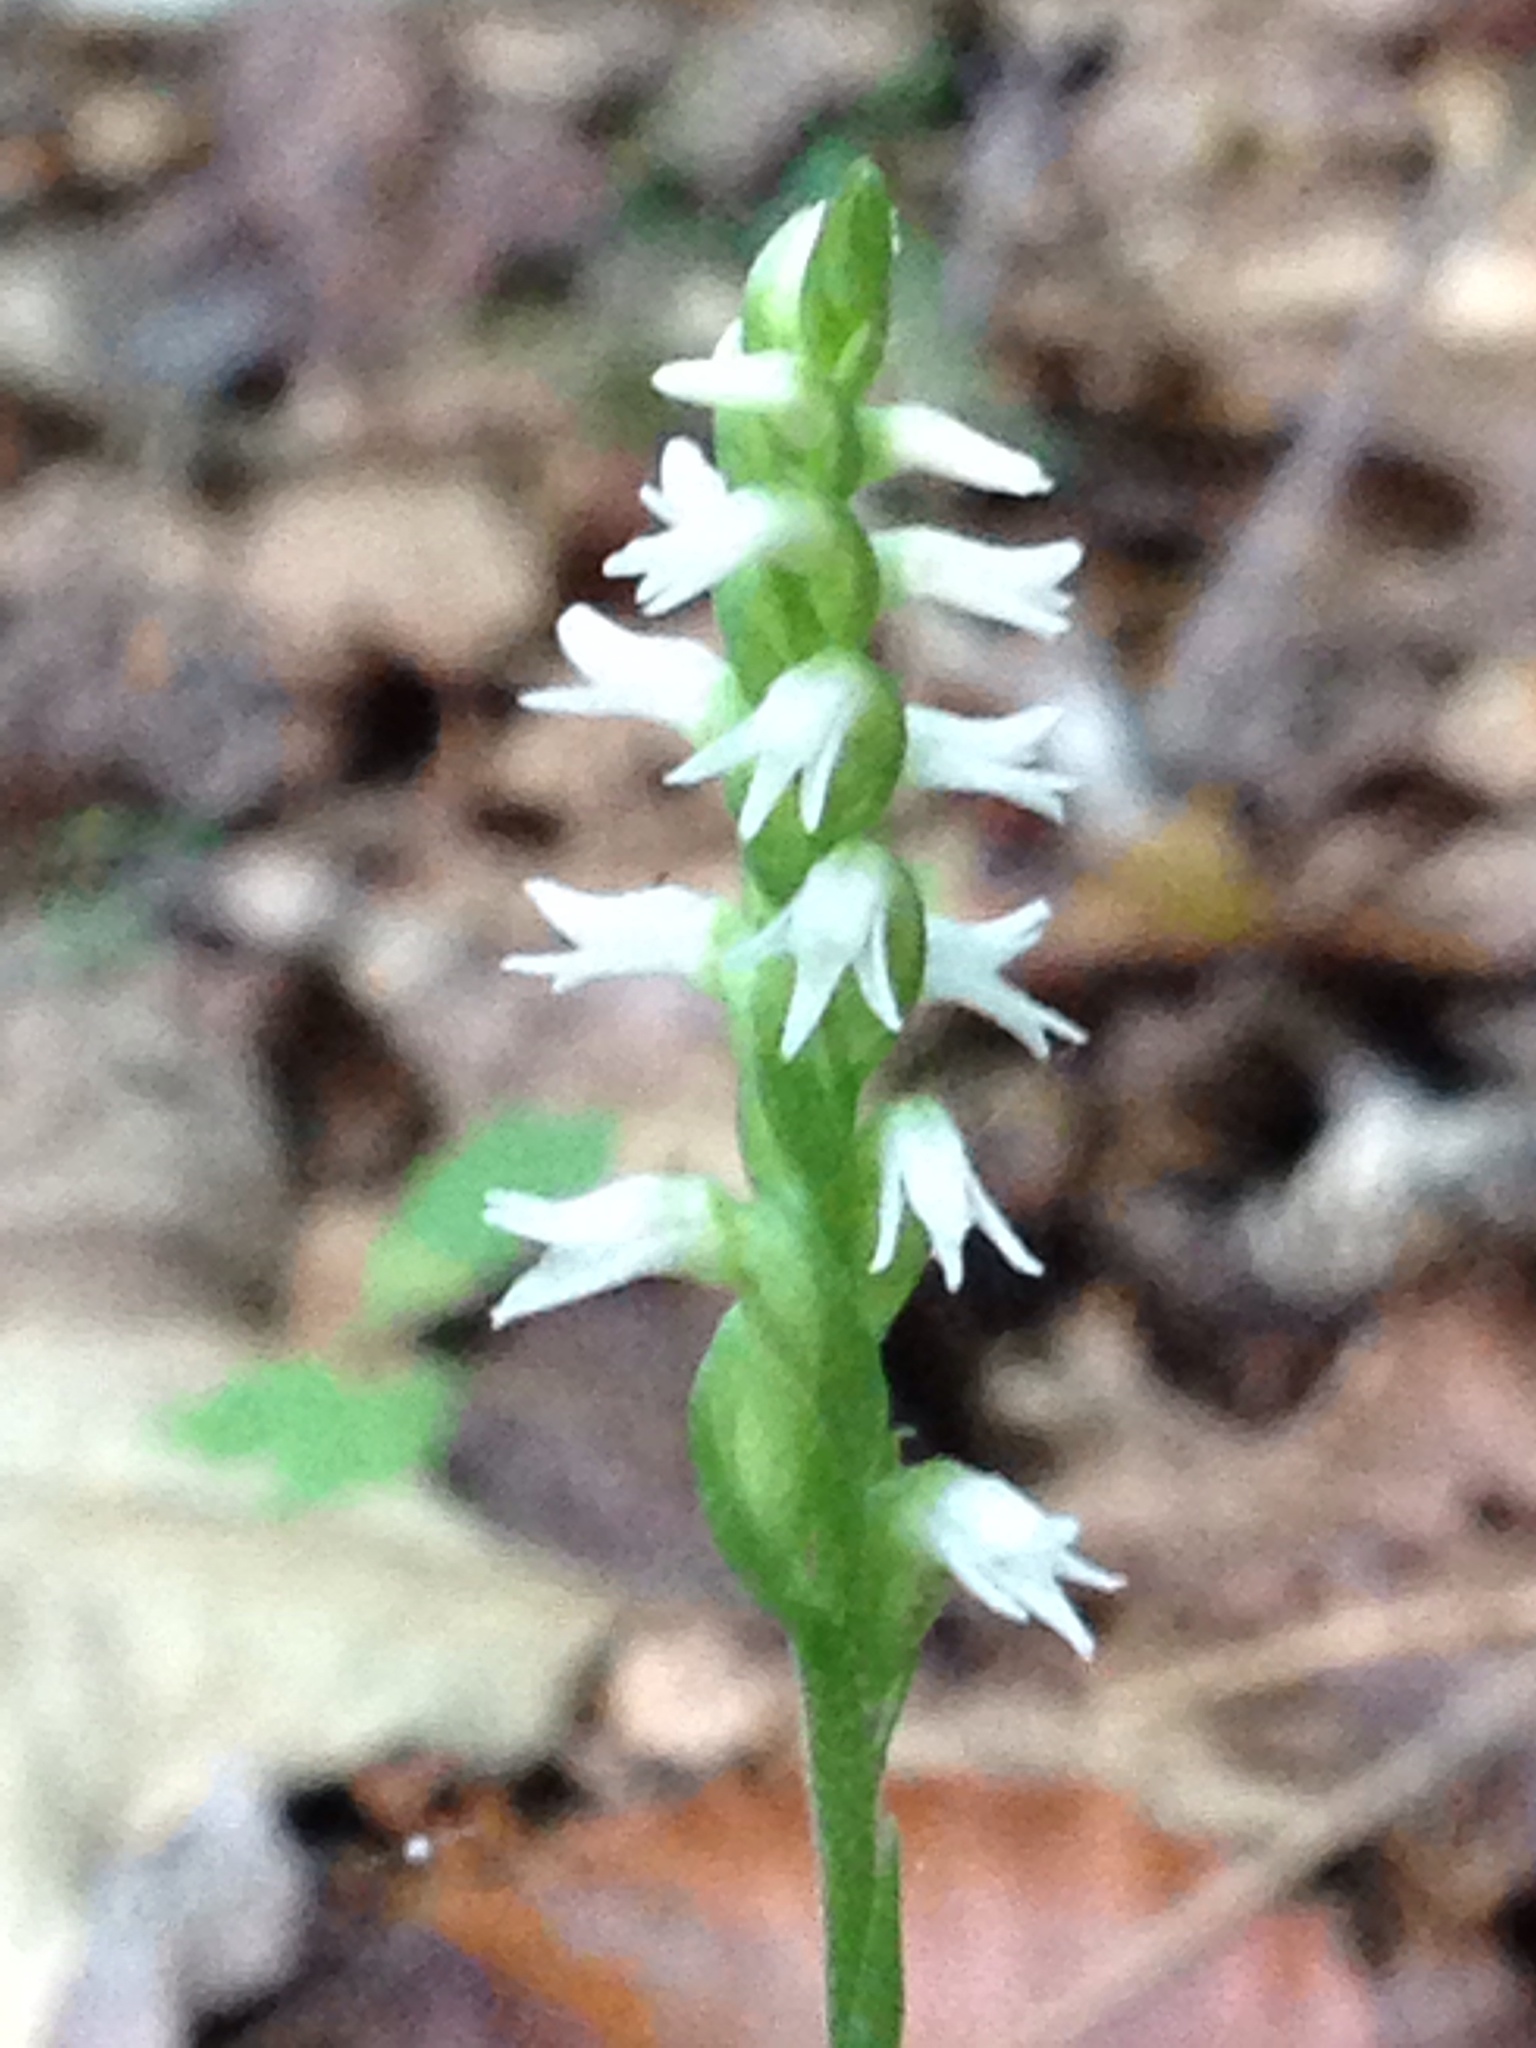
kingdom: Plantae
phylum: Tracheophyta
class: Liliopsida
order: Asparagales
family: Orchidaceae
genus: Spiranthes
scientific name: Spiranthes ovalis
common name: October ladies'-tresses
